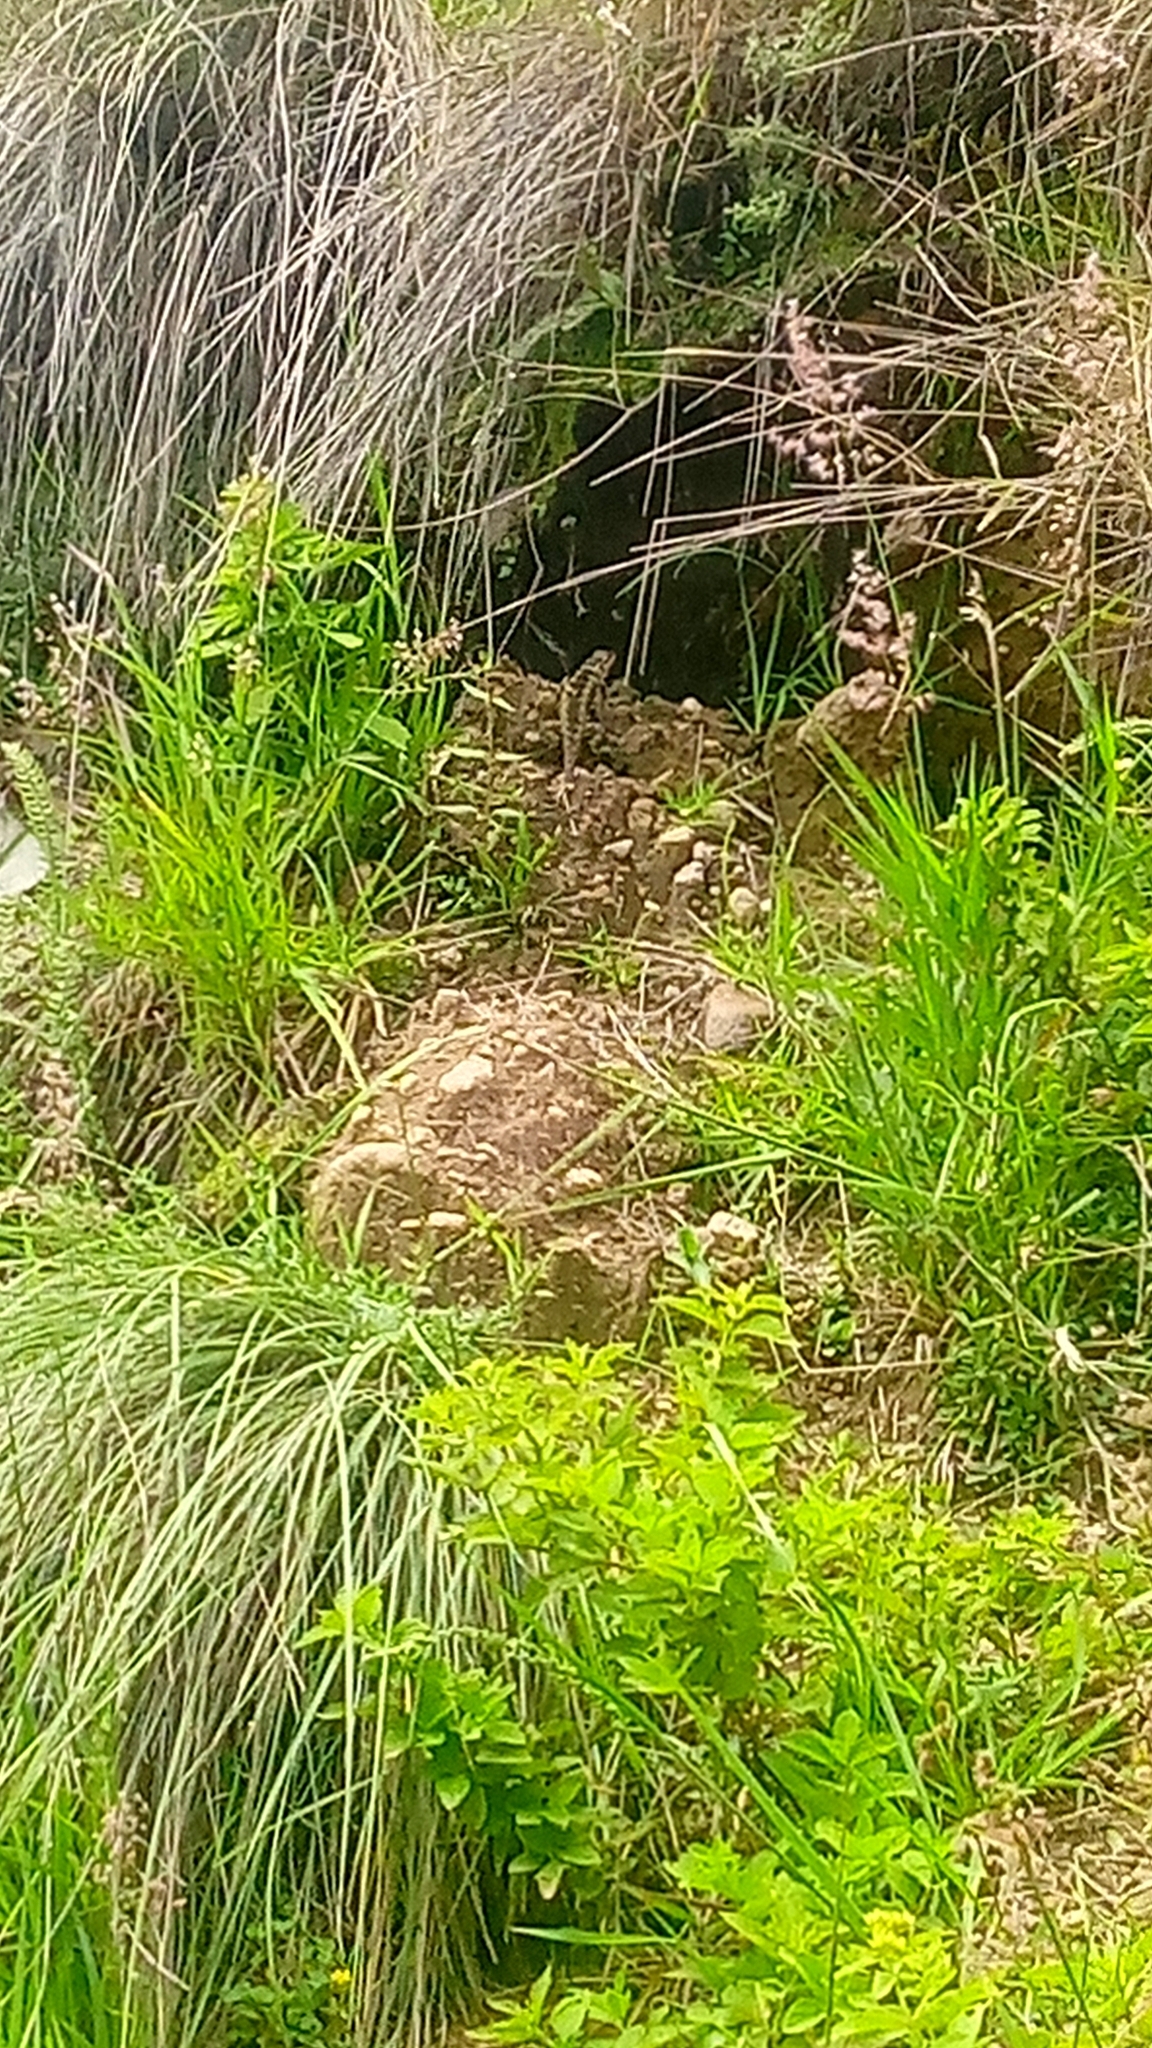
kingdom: Animalia
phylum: Chordata
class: Squamata
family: Phrynosomatidae
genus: Sceloporus
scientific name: Sceloporus spinosus
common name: Blue-spotted spiny lizard [caeruleopunctatus]
